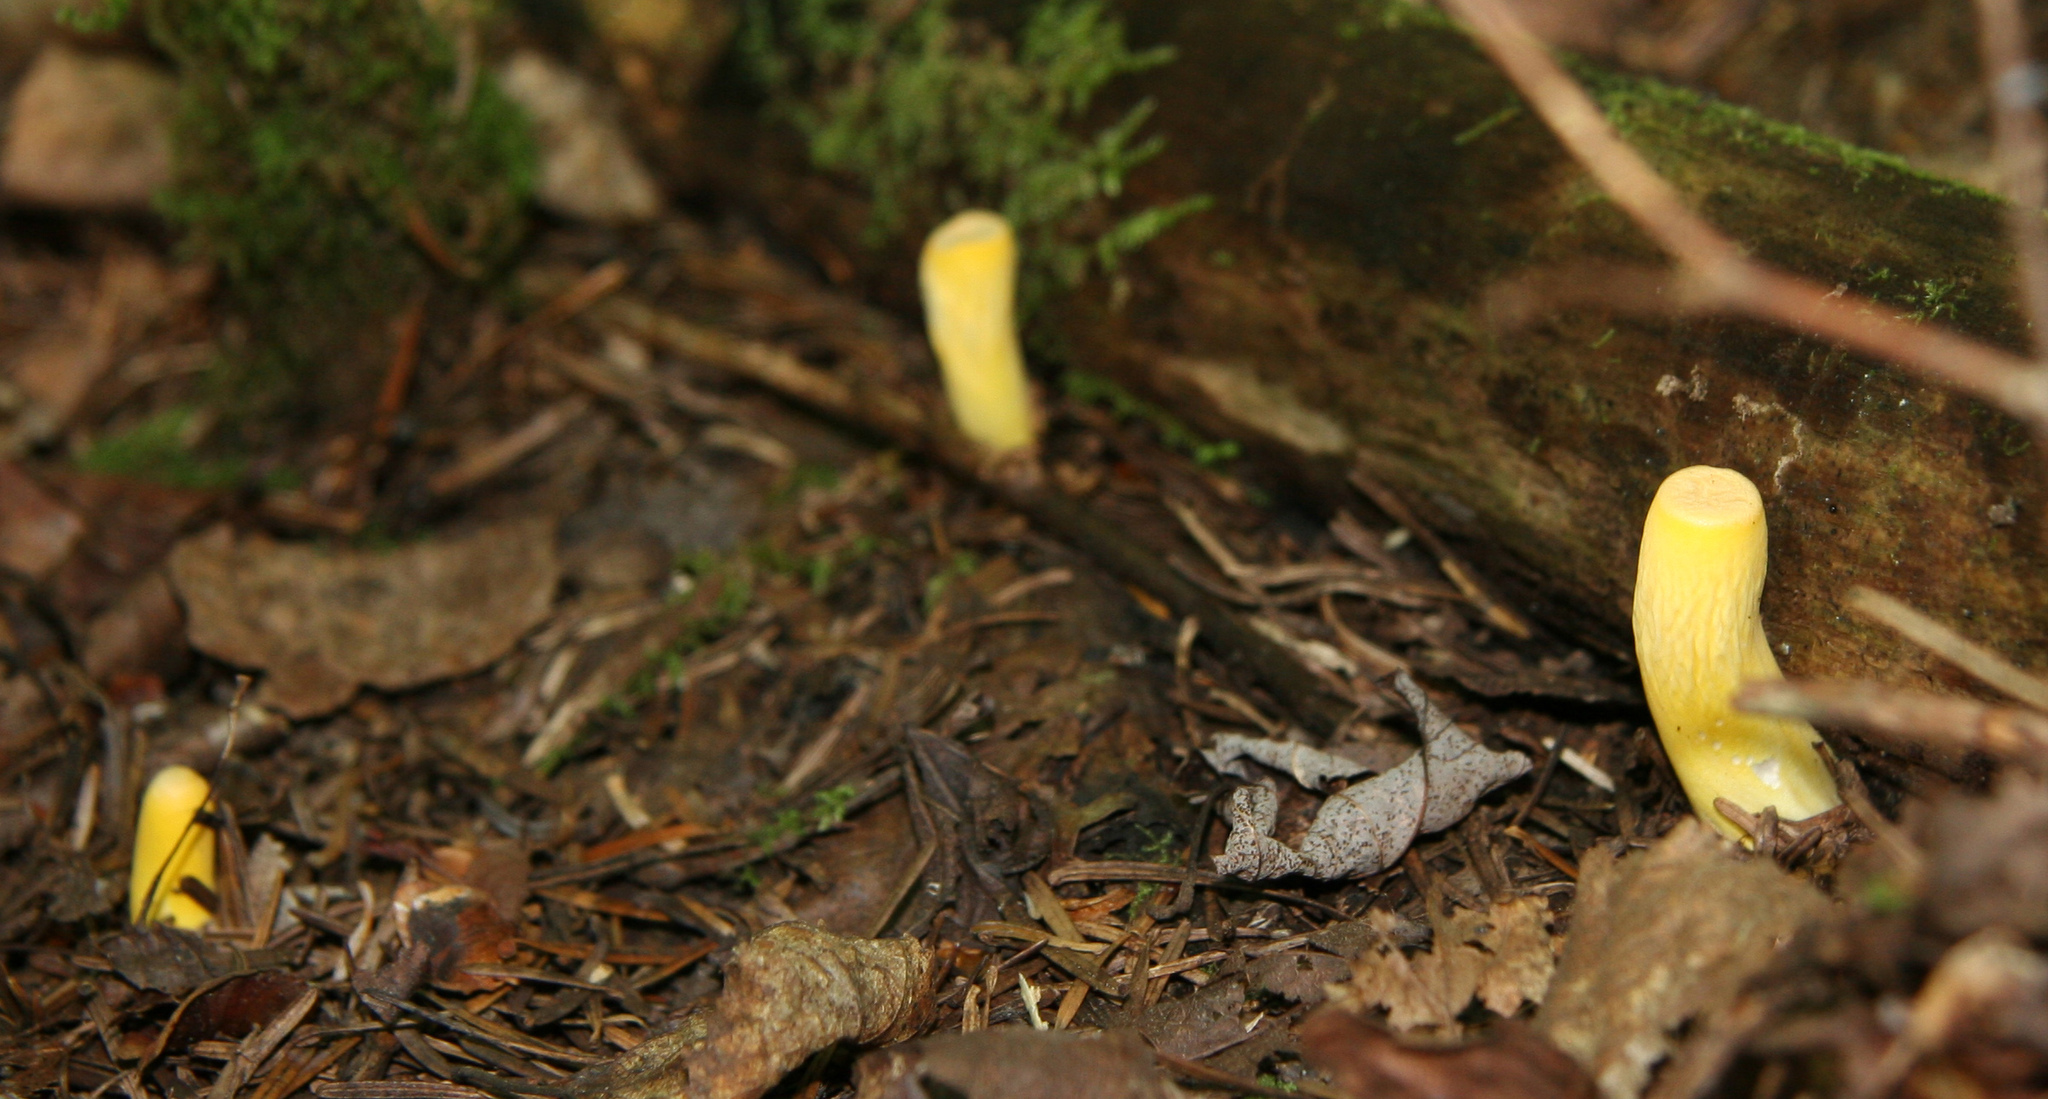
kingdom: Fungi
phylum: Basidiomycota
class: Agaricomycetes
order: Gomphales
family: Gomphaceae
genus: Turbinellus
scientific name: Turbinellus floccosus
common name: Scaly chanterelle
